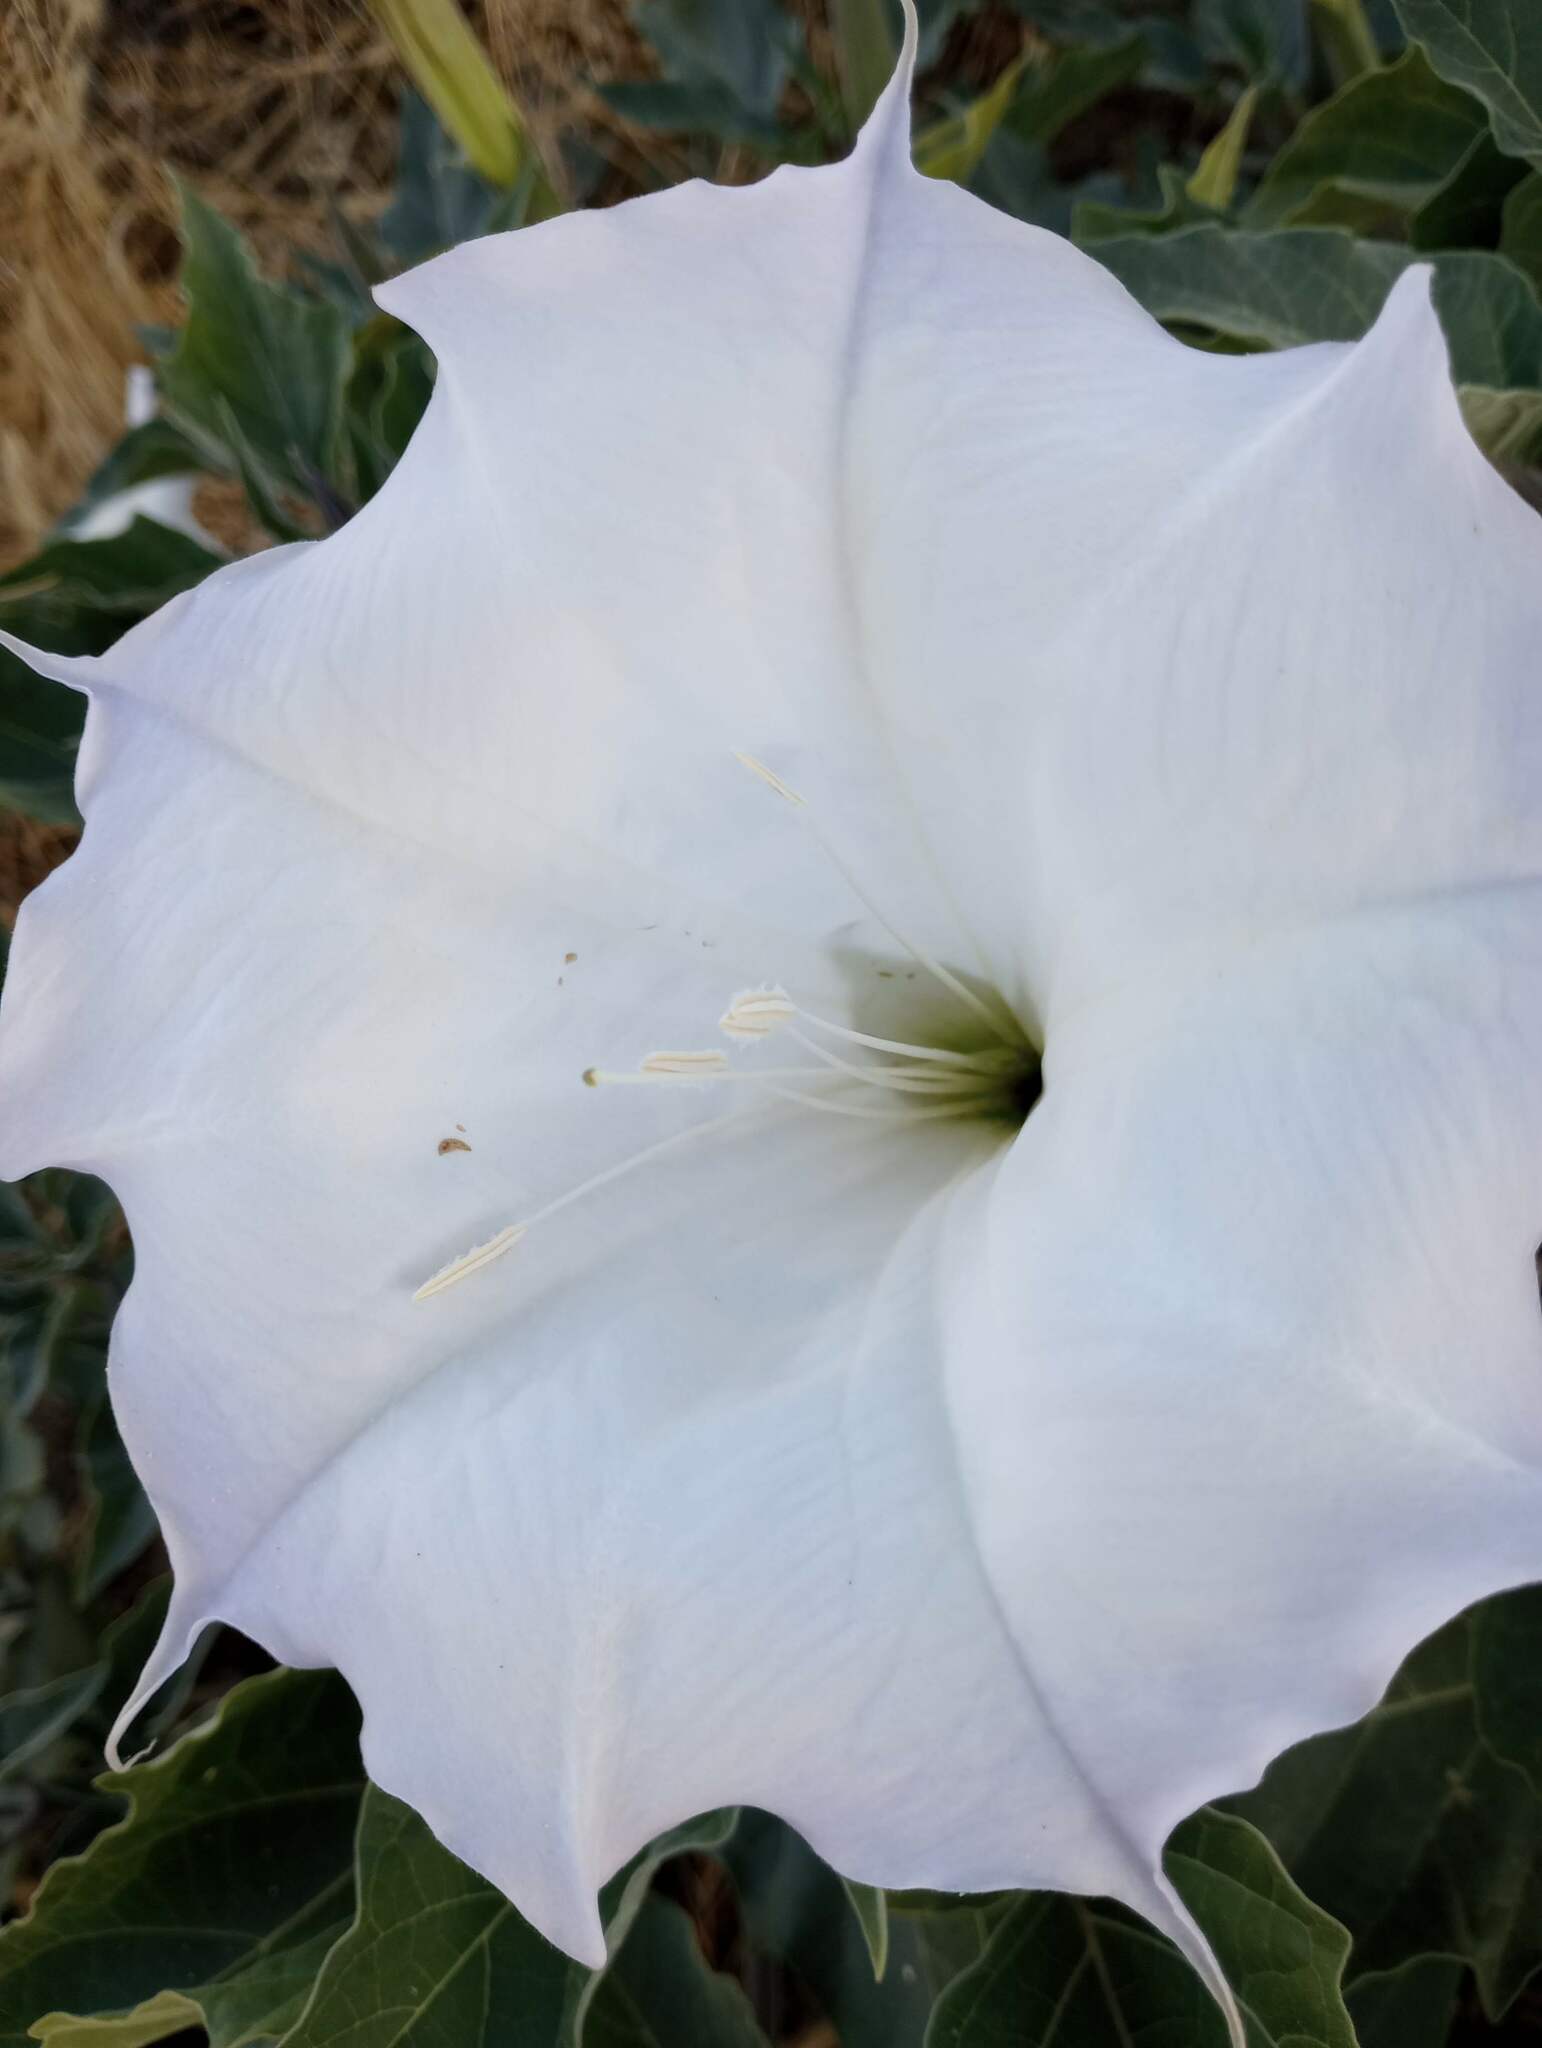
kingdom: Plantae
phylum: Tracheophyta
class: Magnoliopsida
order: Solanales
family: Solanaceae
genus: Datura
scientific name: Datura wrightii
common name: Sacred thorn-apple
